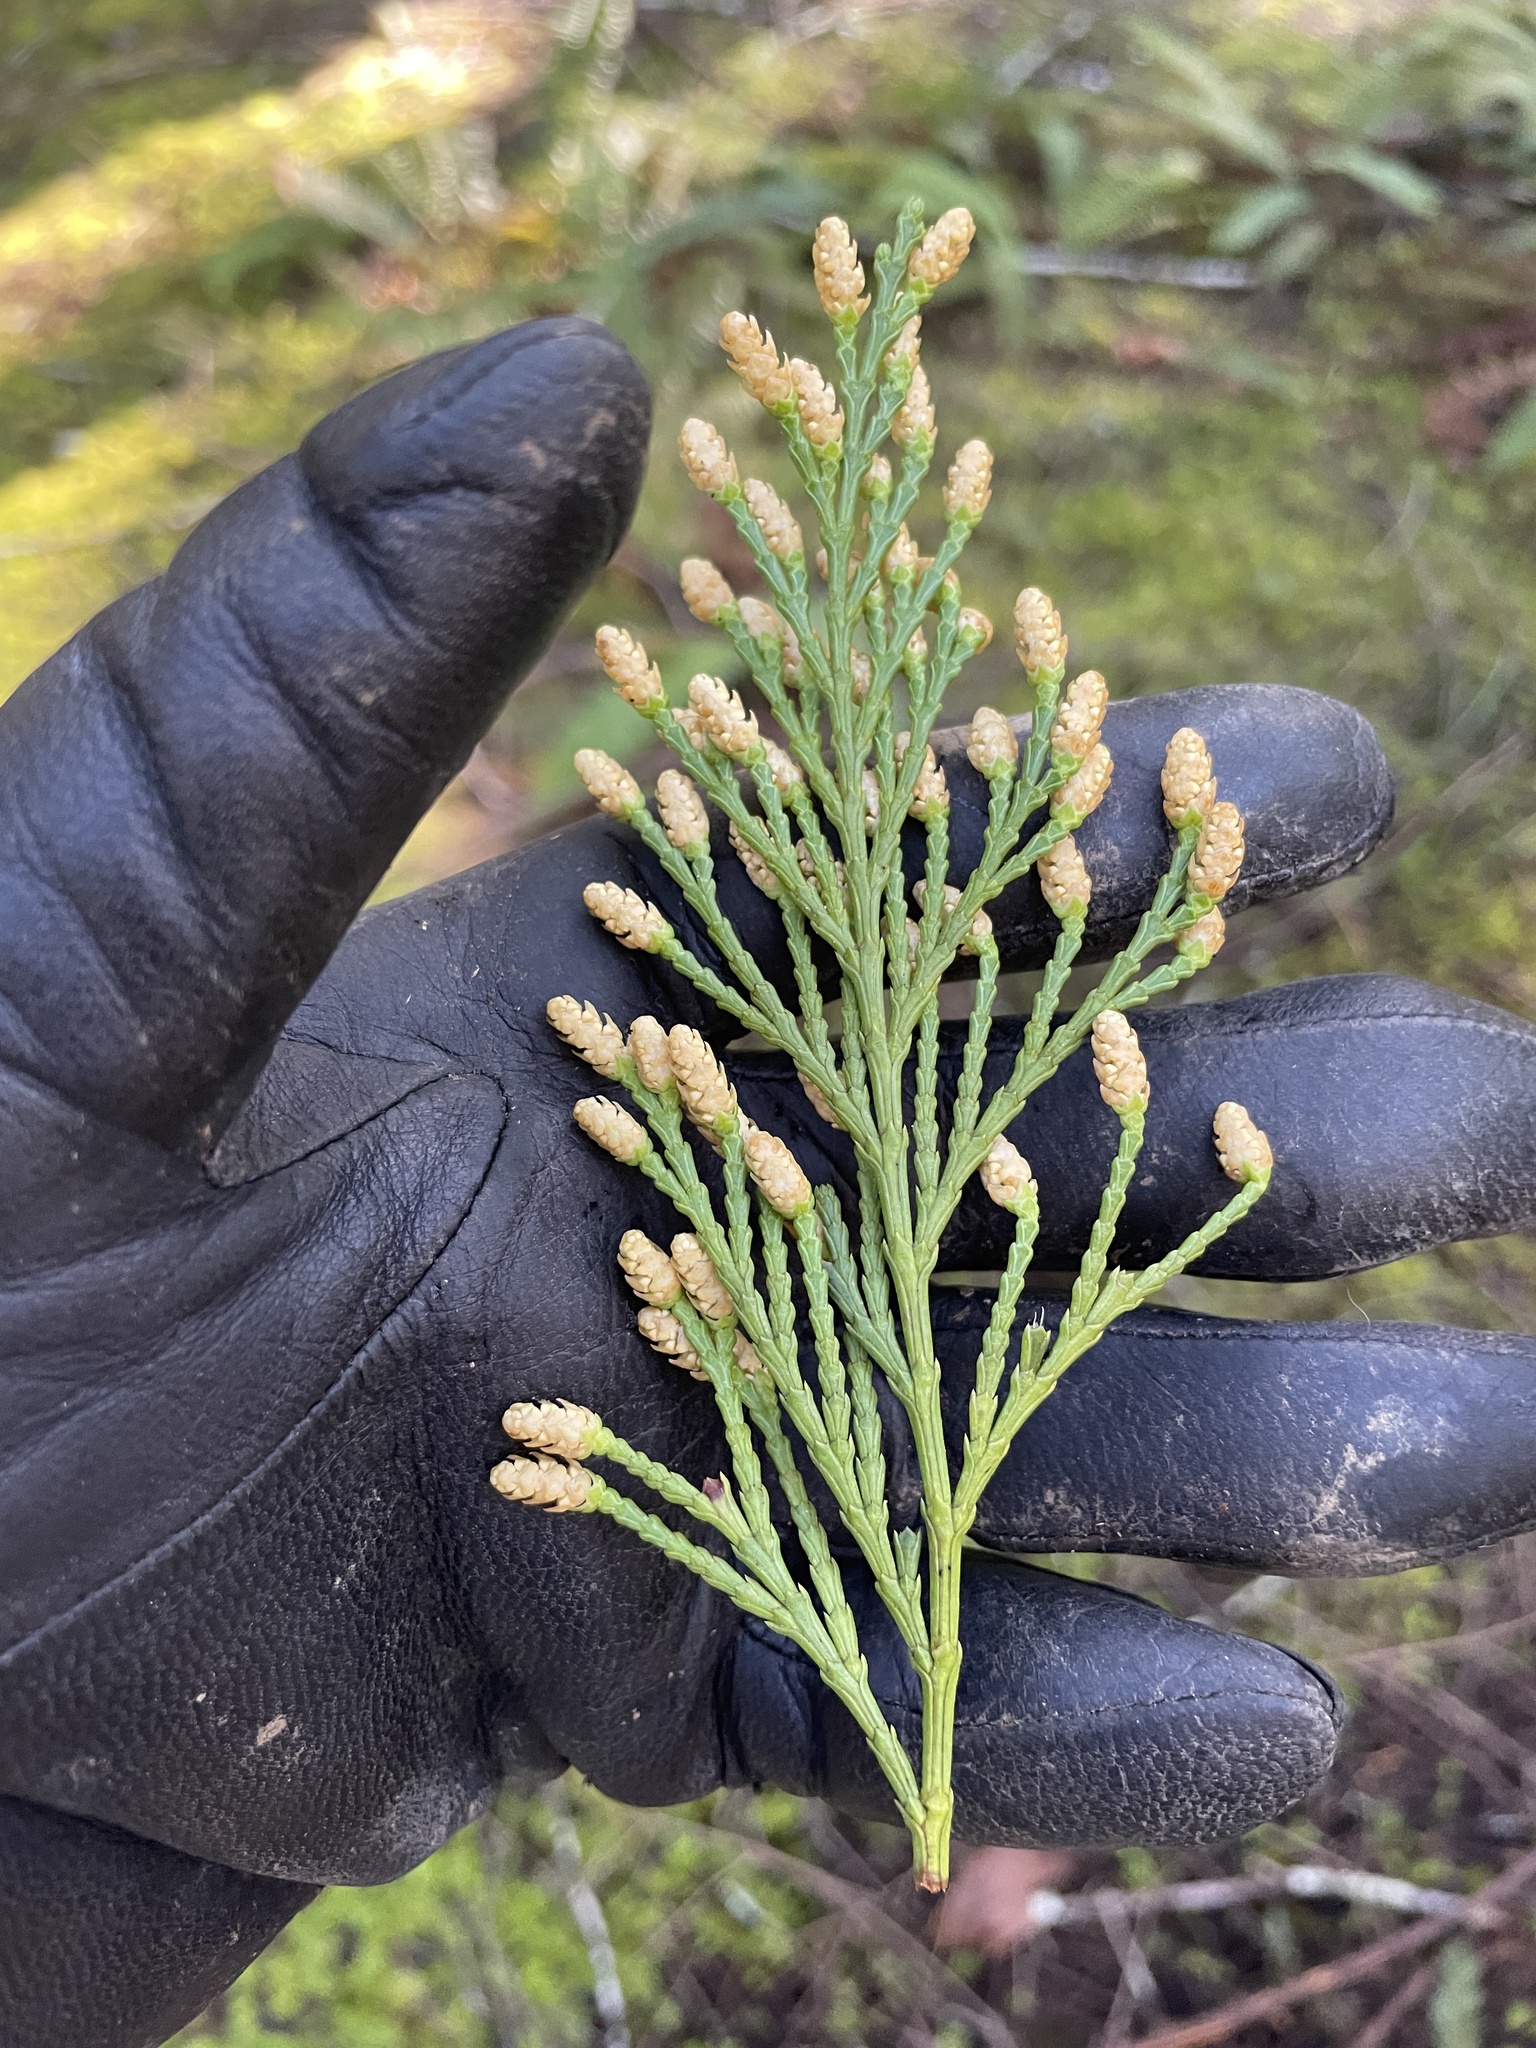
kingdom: Plantae
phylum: Tracheophyta
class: Pinopsida
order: Pinales
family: Cupressaceae
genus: Calocedrus
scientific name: Calocedrus decurrens
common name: Californian incense-cedar
